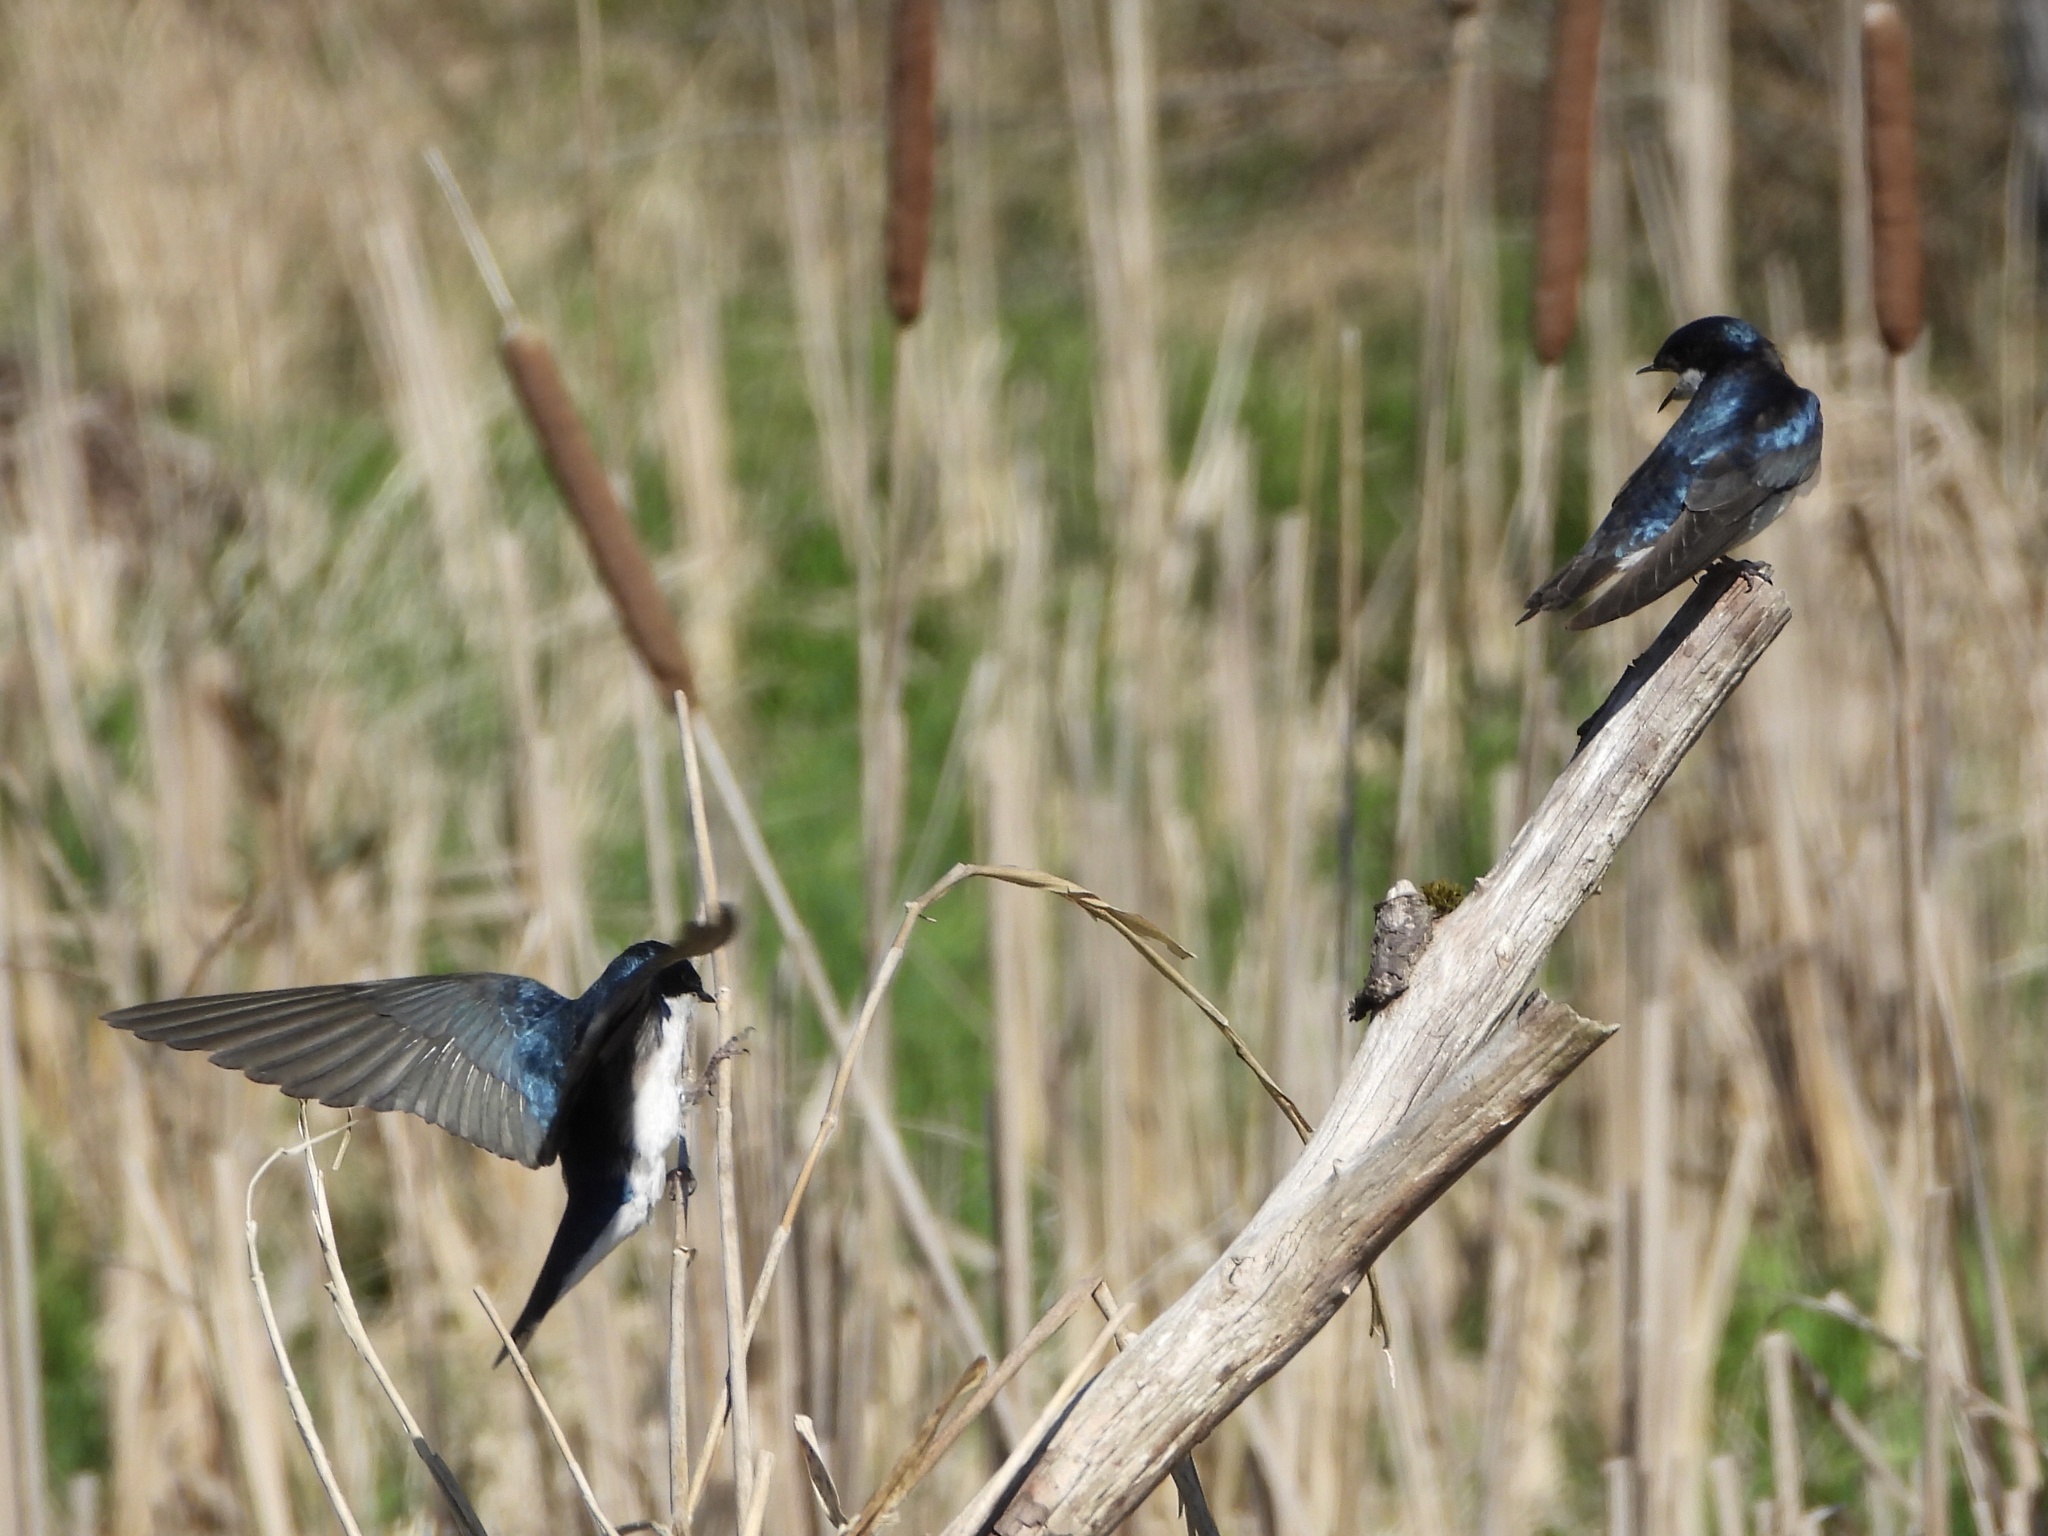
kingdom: Animalia
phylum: Chordata
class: Aves
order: Passeriformes
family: Hirundinidae
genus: Tachycineta
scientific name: Tachycineta bicolor
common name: Tree swallow
